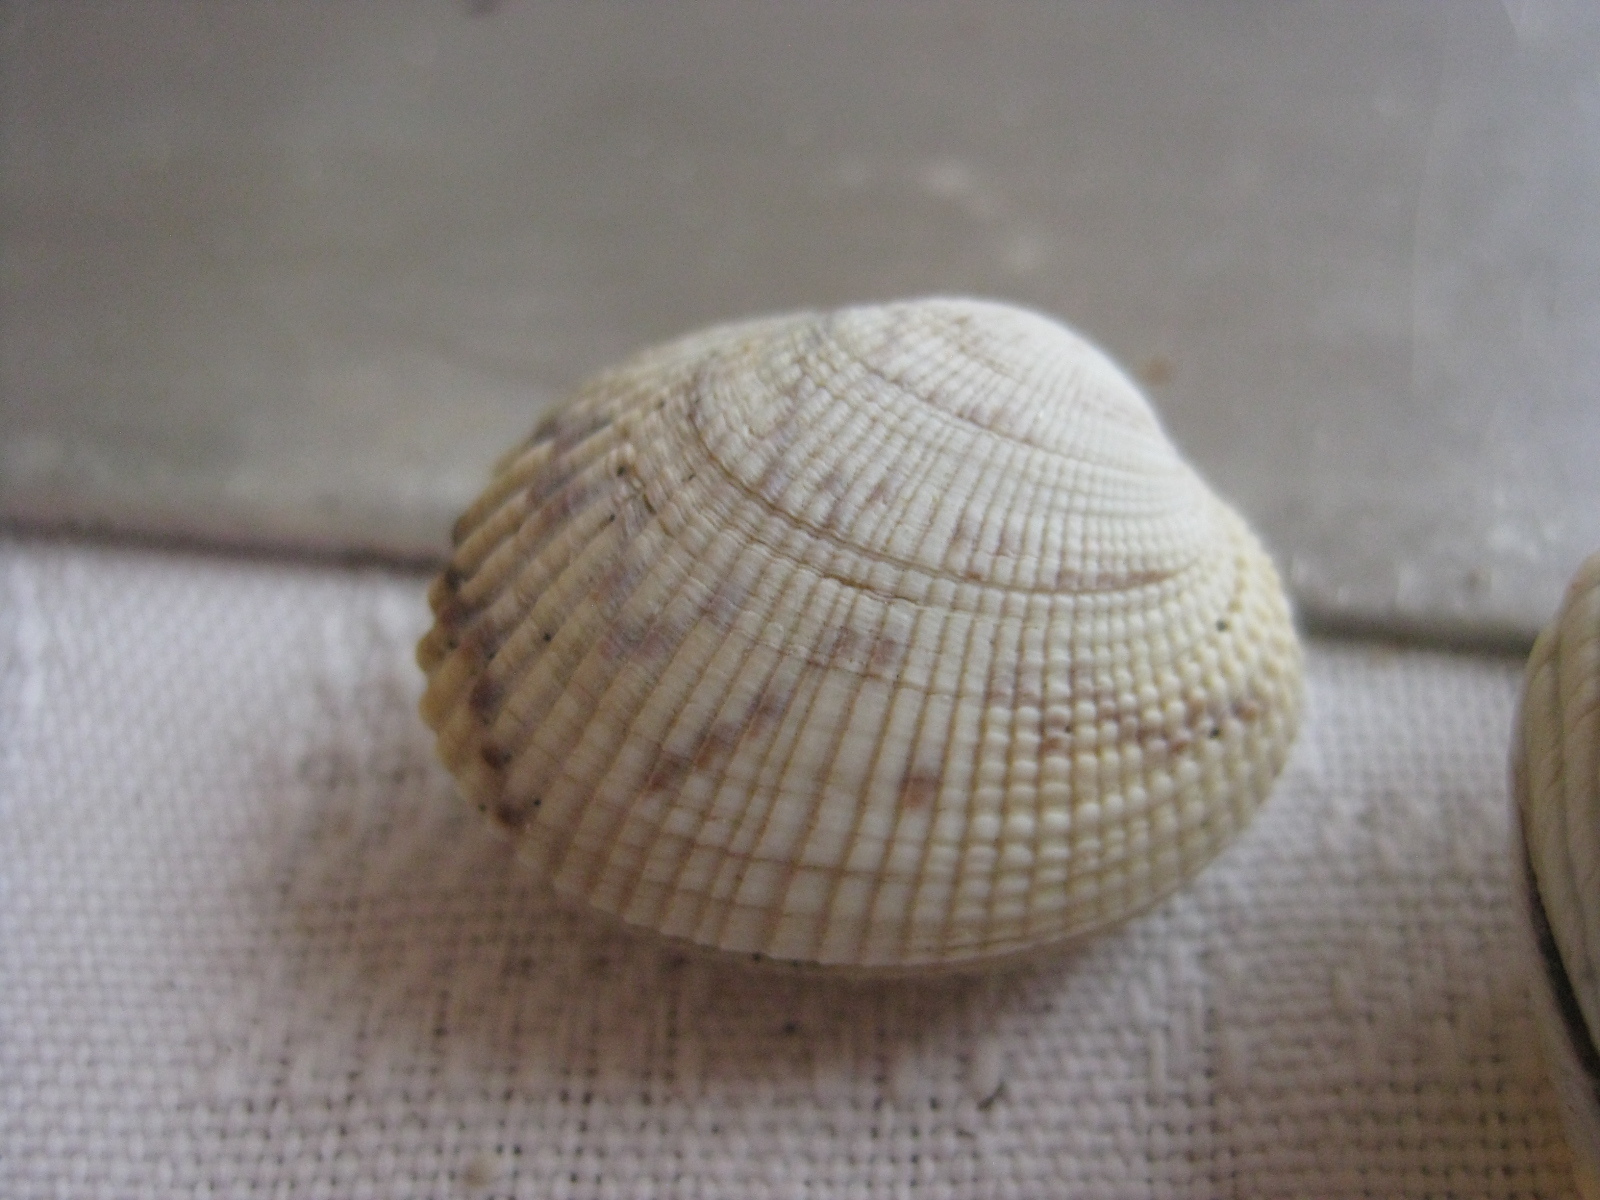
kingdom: Animalia
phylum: Mollusca
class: Bivalvia
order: Venerida
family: Veneridae
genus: Leukoma
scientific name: Leukoma crassicosta
